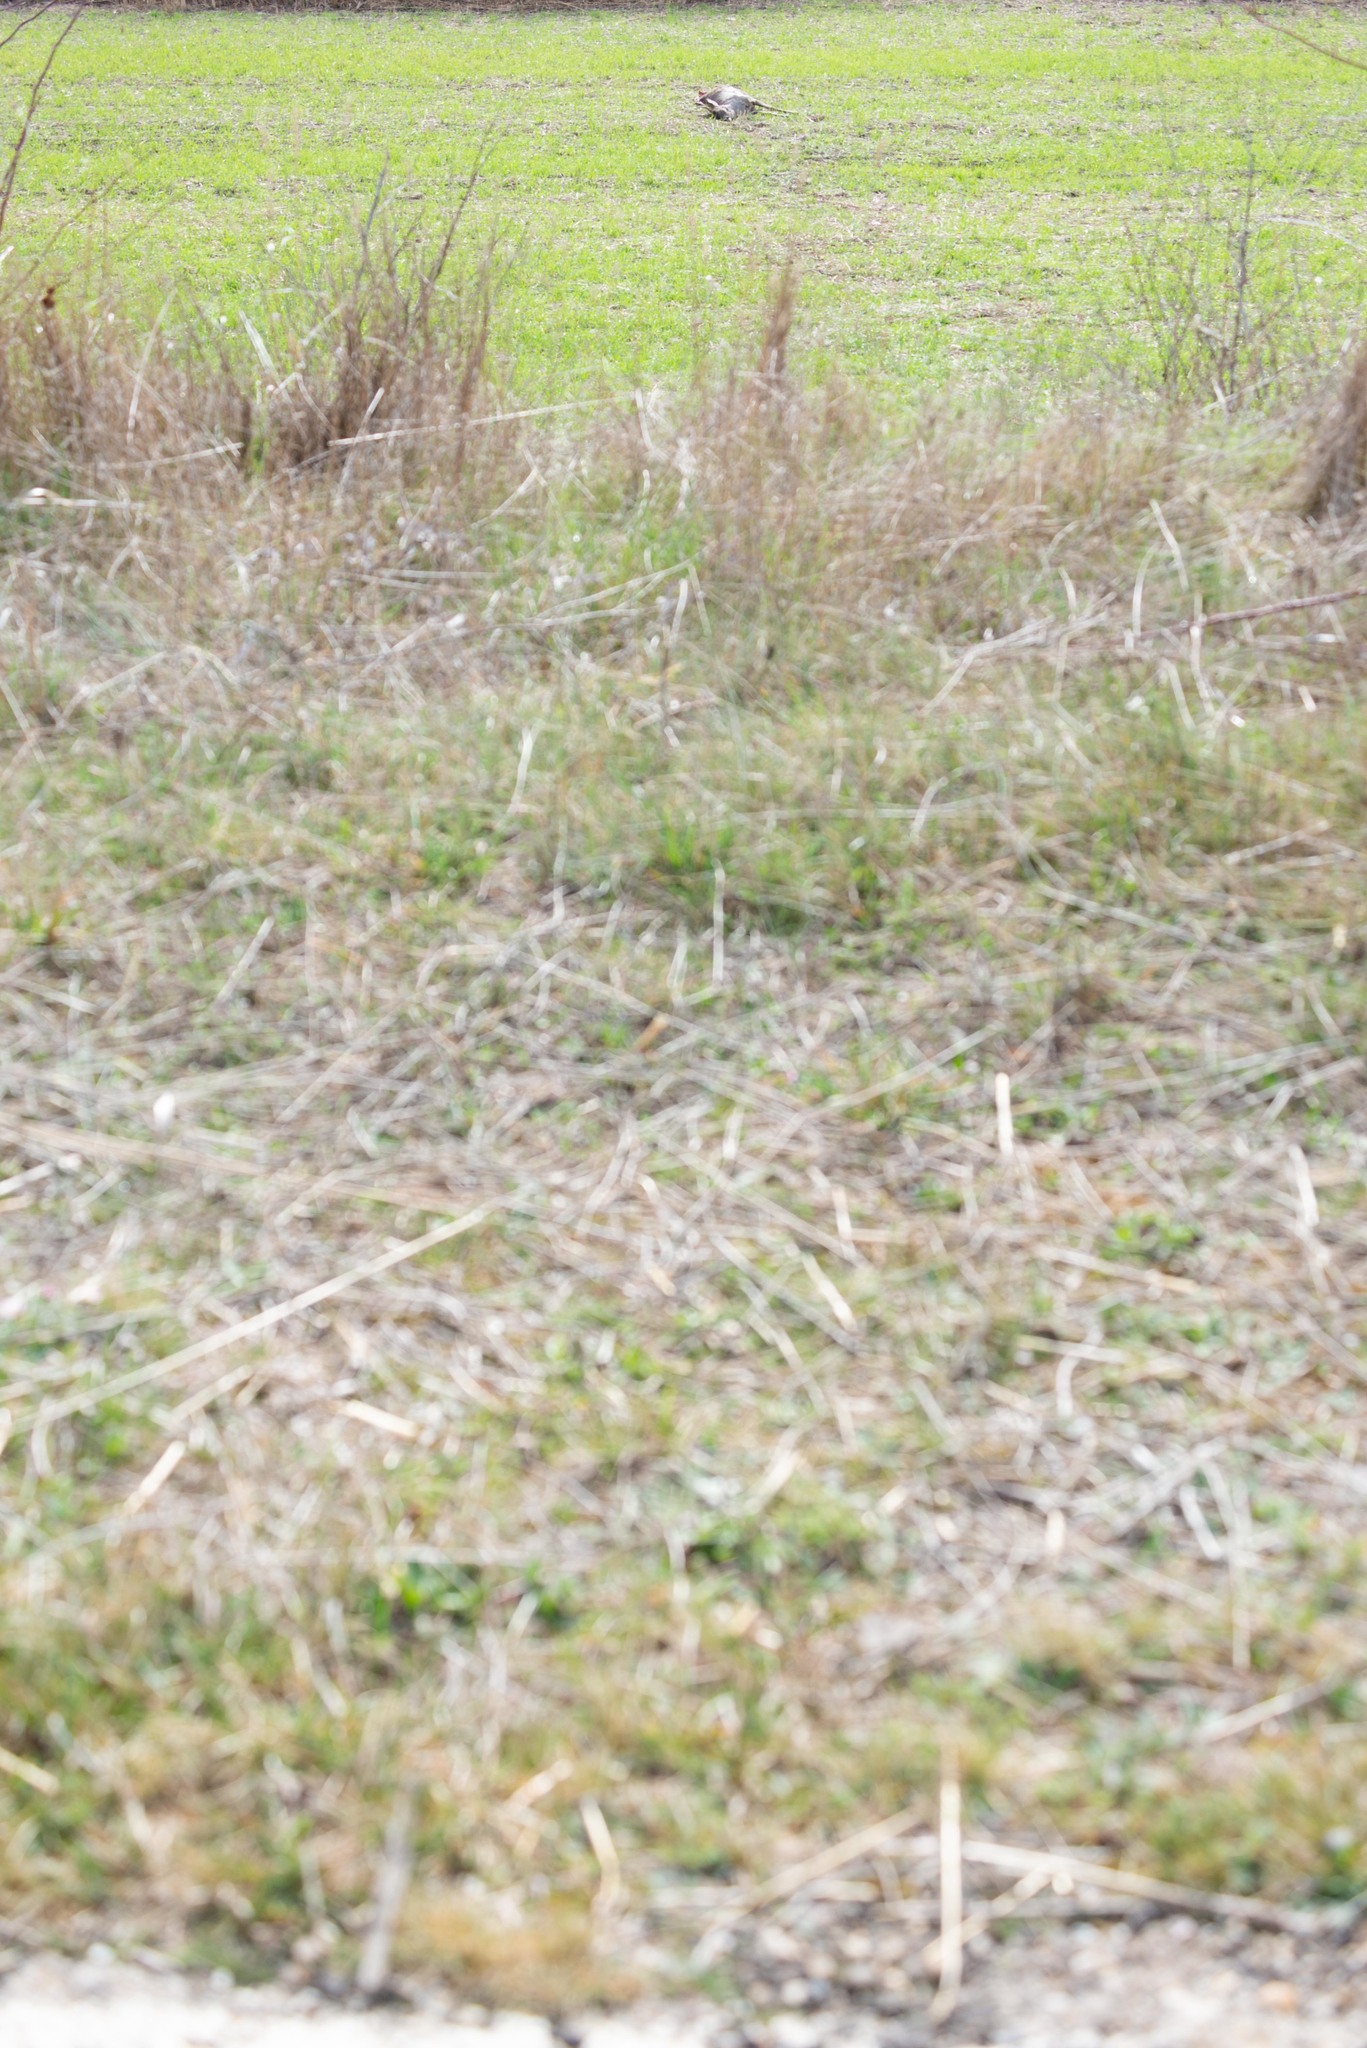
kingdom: Animalia
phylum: Chordata
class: Mammalia
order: Artiodactyla
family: Cervidae
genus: Capreolus
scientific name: Capreolus capreolus
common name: Western roe deer
